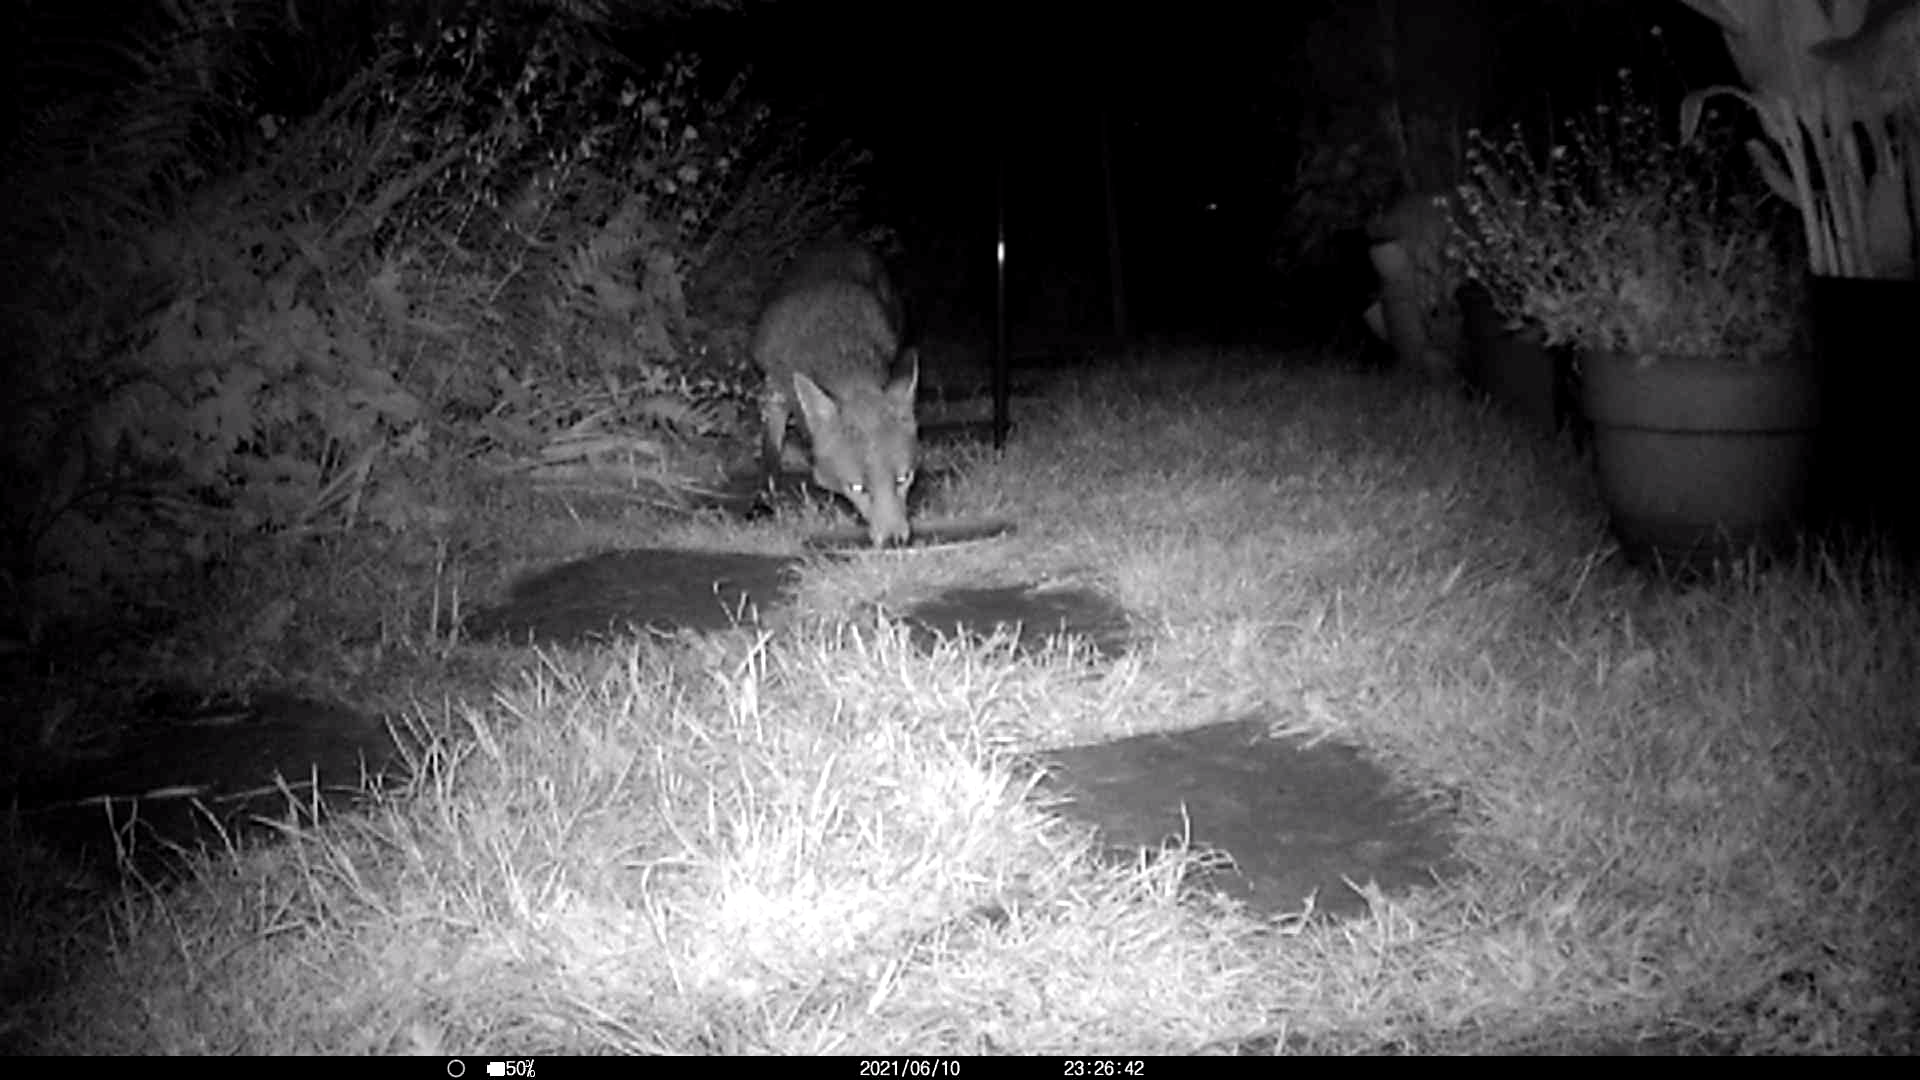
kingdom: Animalia
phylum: Chordata
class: Mammalia
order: Carnivora
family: Canidae
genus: Vulpes
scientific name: Vulpes vulpes
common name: Red fox
